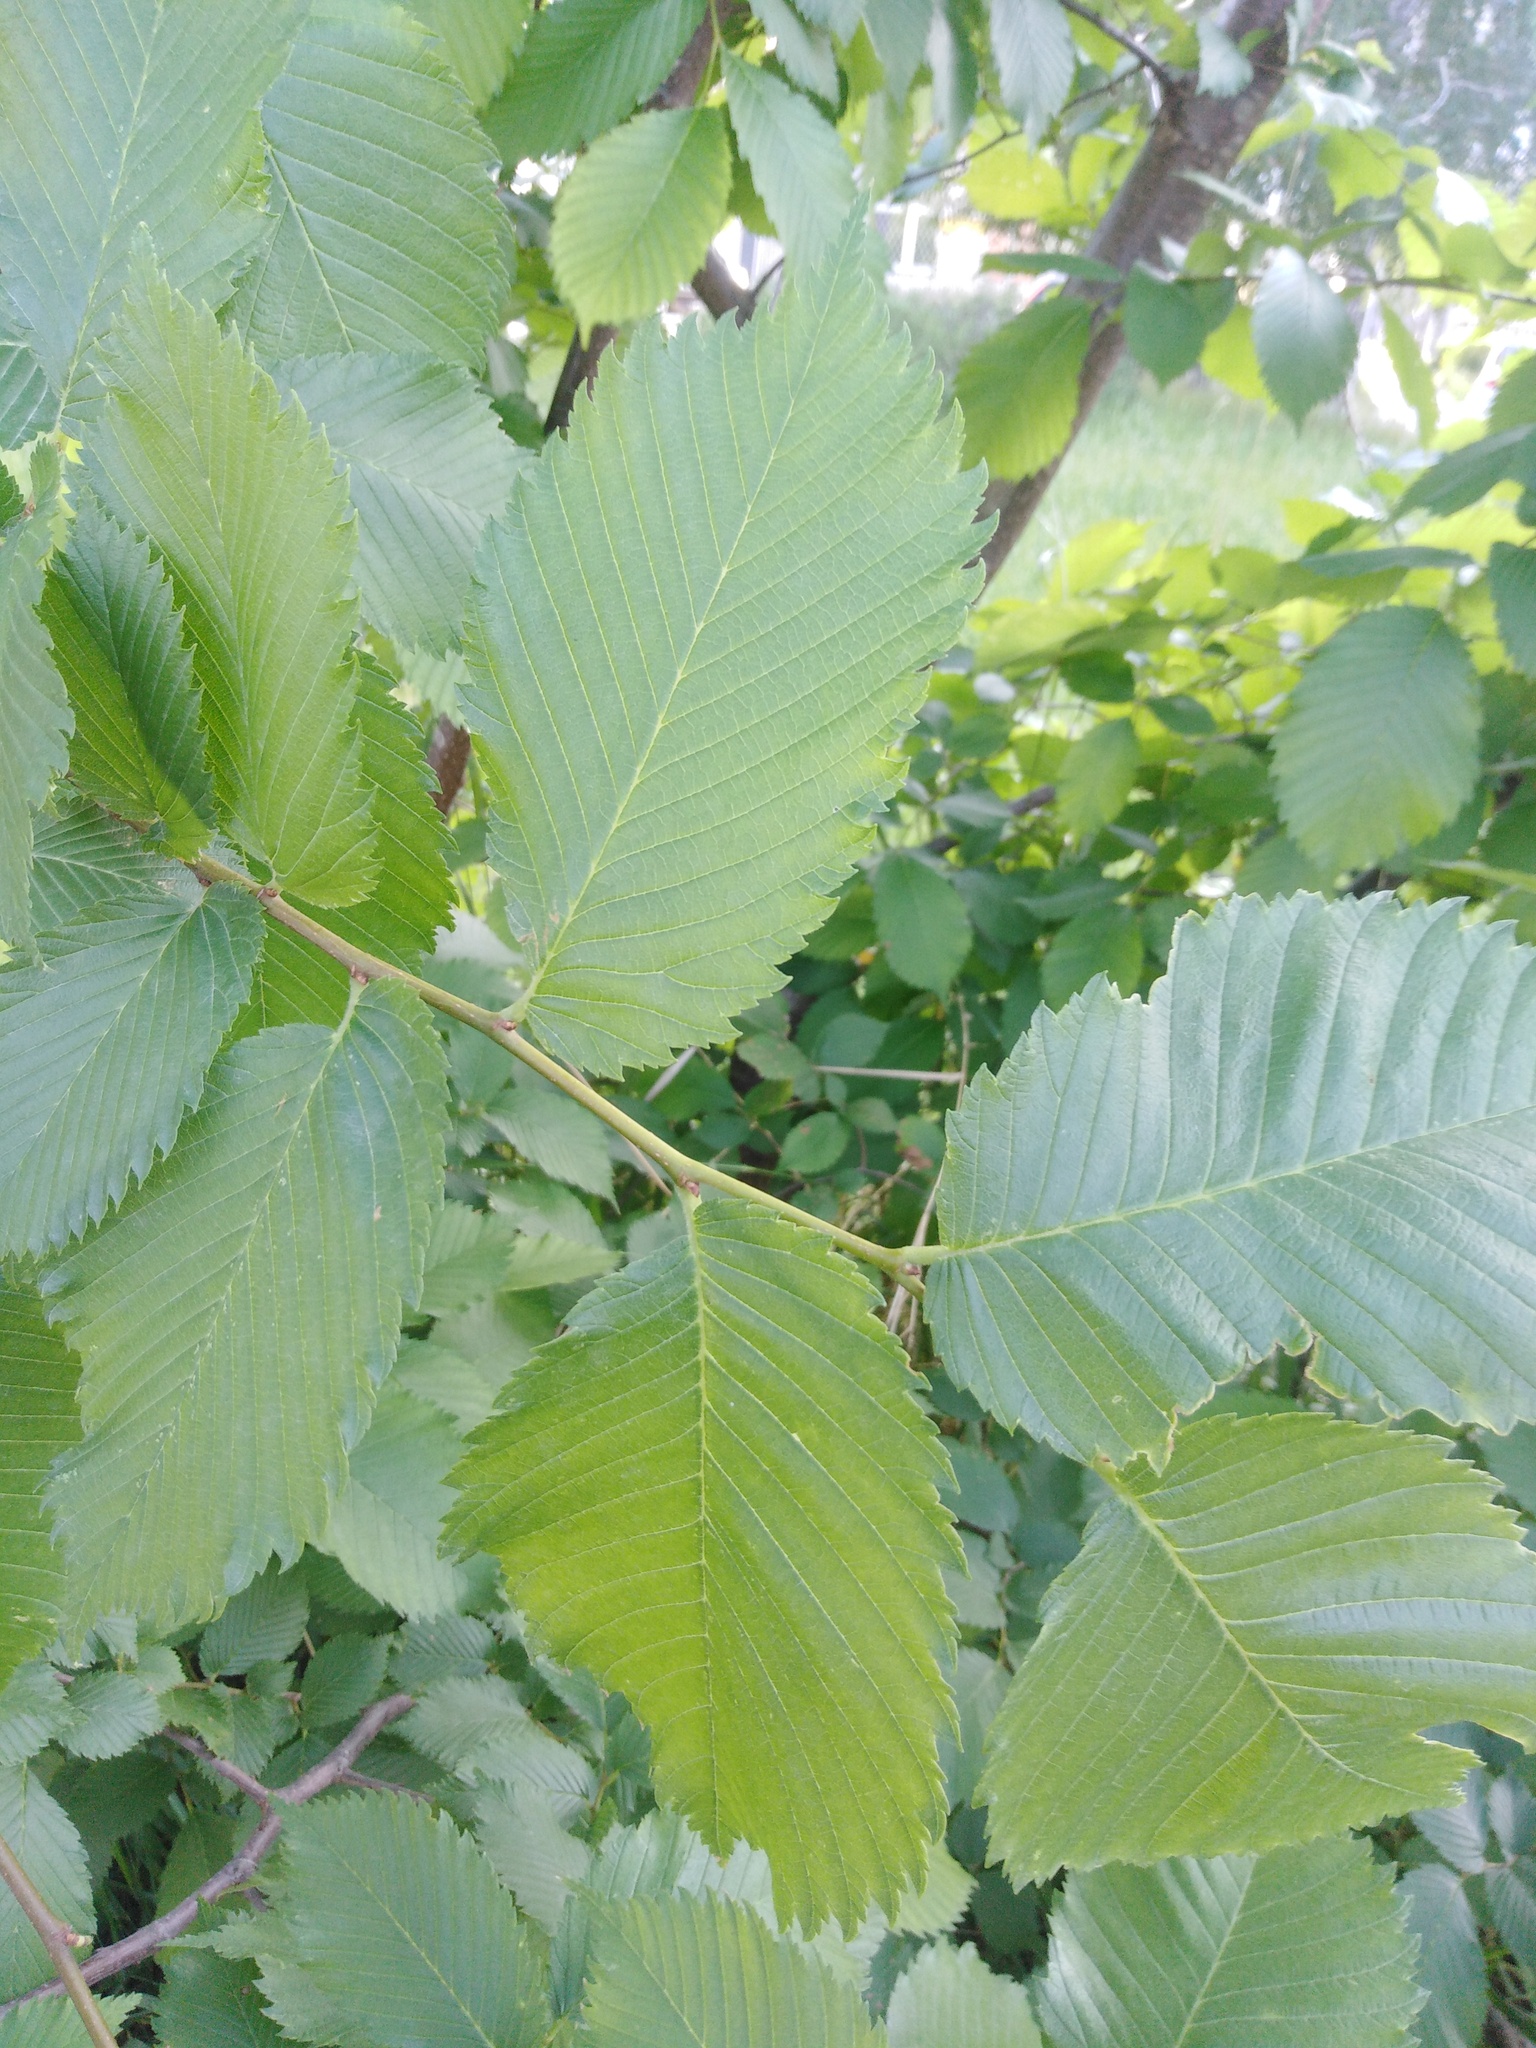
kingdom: Plantae
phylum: Tracheophyta
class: Magnoliopsida
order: Rosales
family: Ulmaceae
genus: Ulmus
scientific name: Ulmus laevis
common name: European white-elm
